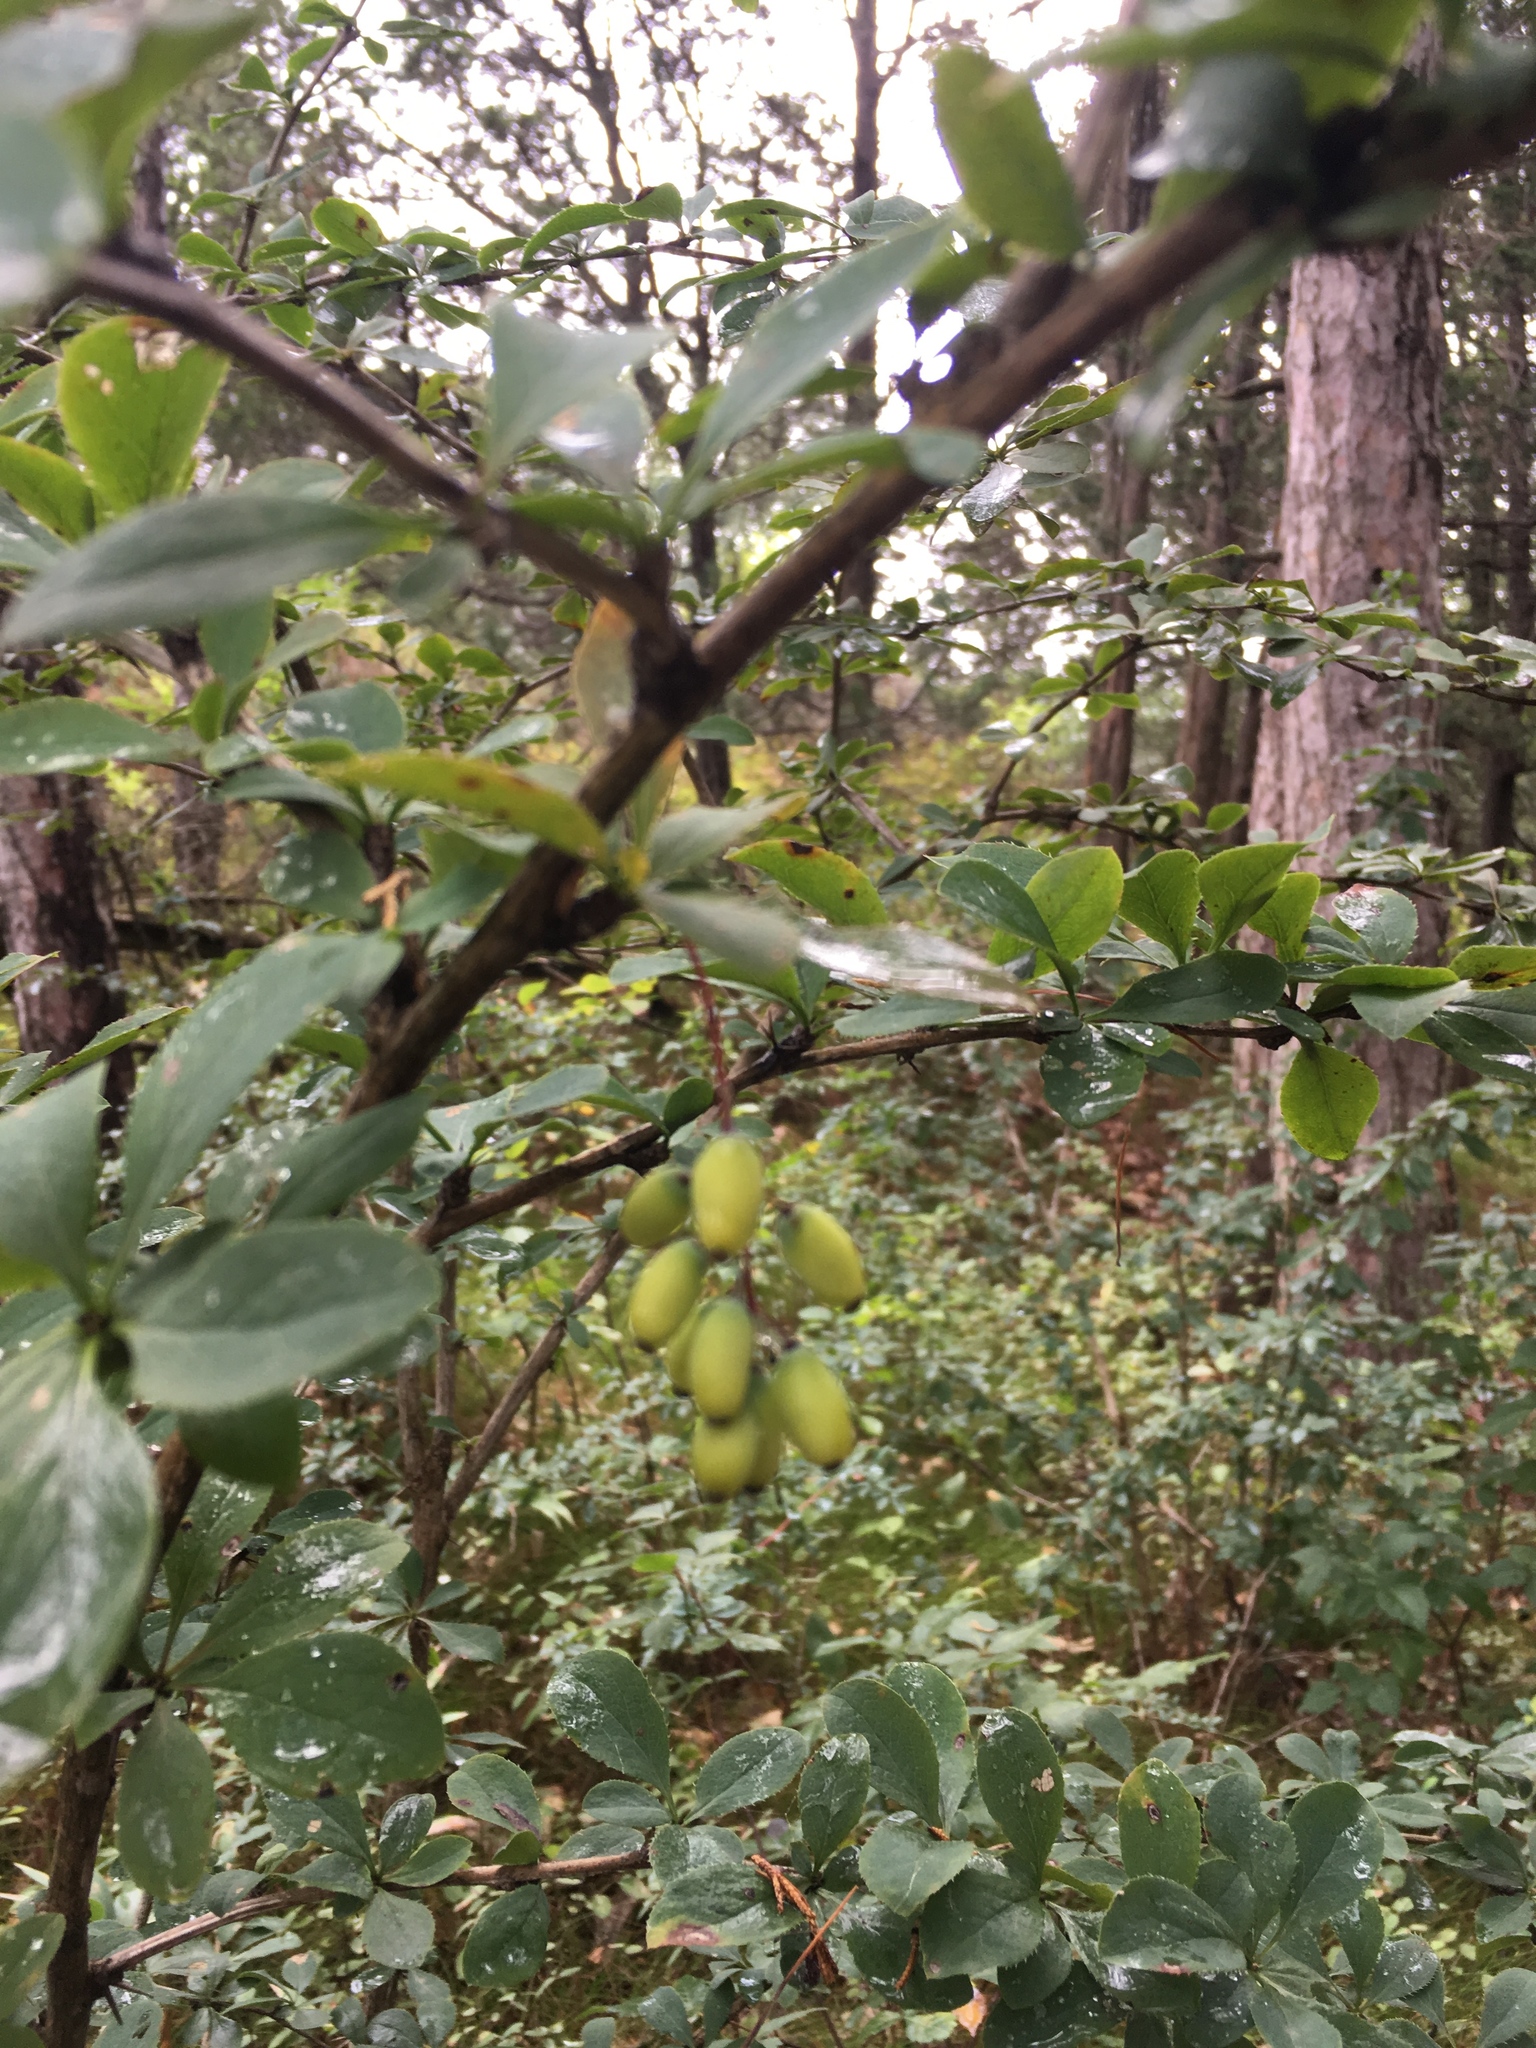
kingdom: Plantae
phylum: Tracheophyta
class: Magnoliopsida
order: Ranunculales
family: Berberidaceae
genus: Berberis
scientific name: Berberis vulgaris
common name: Barberry
